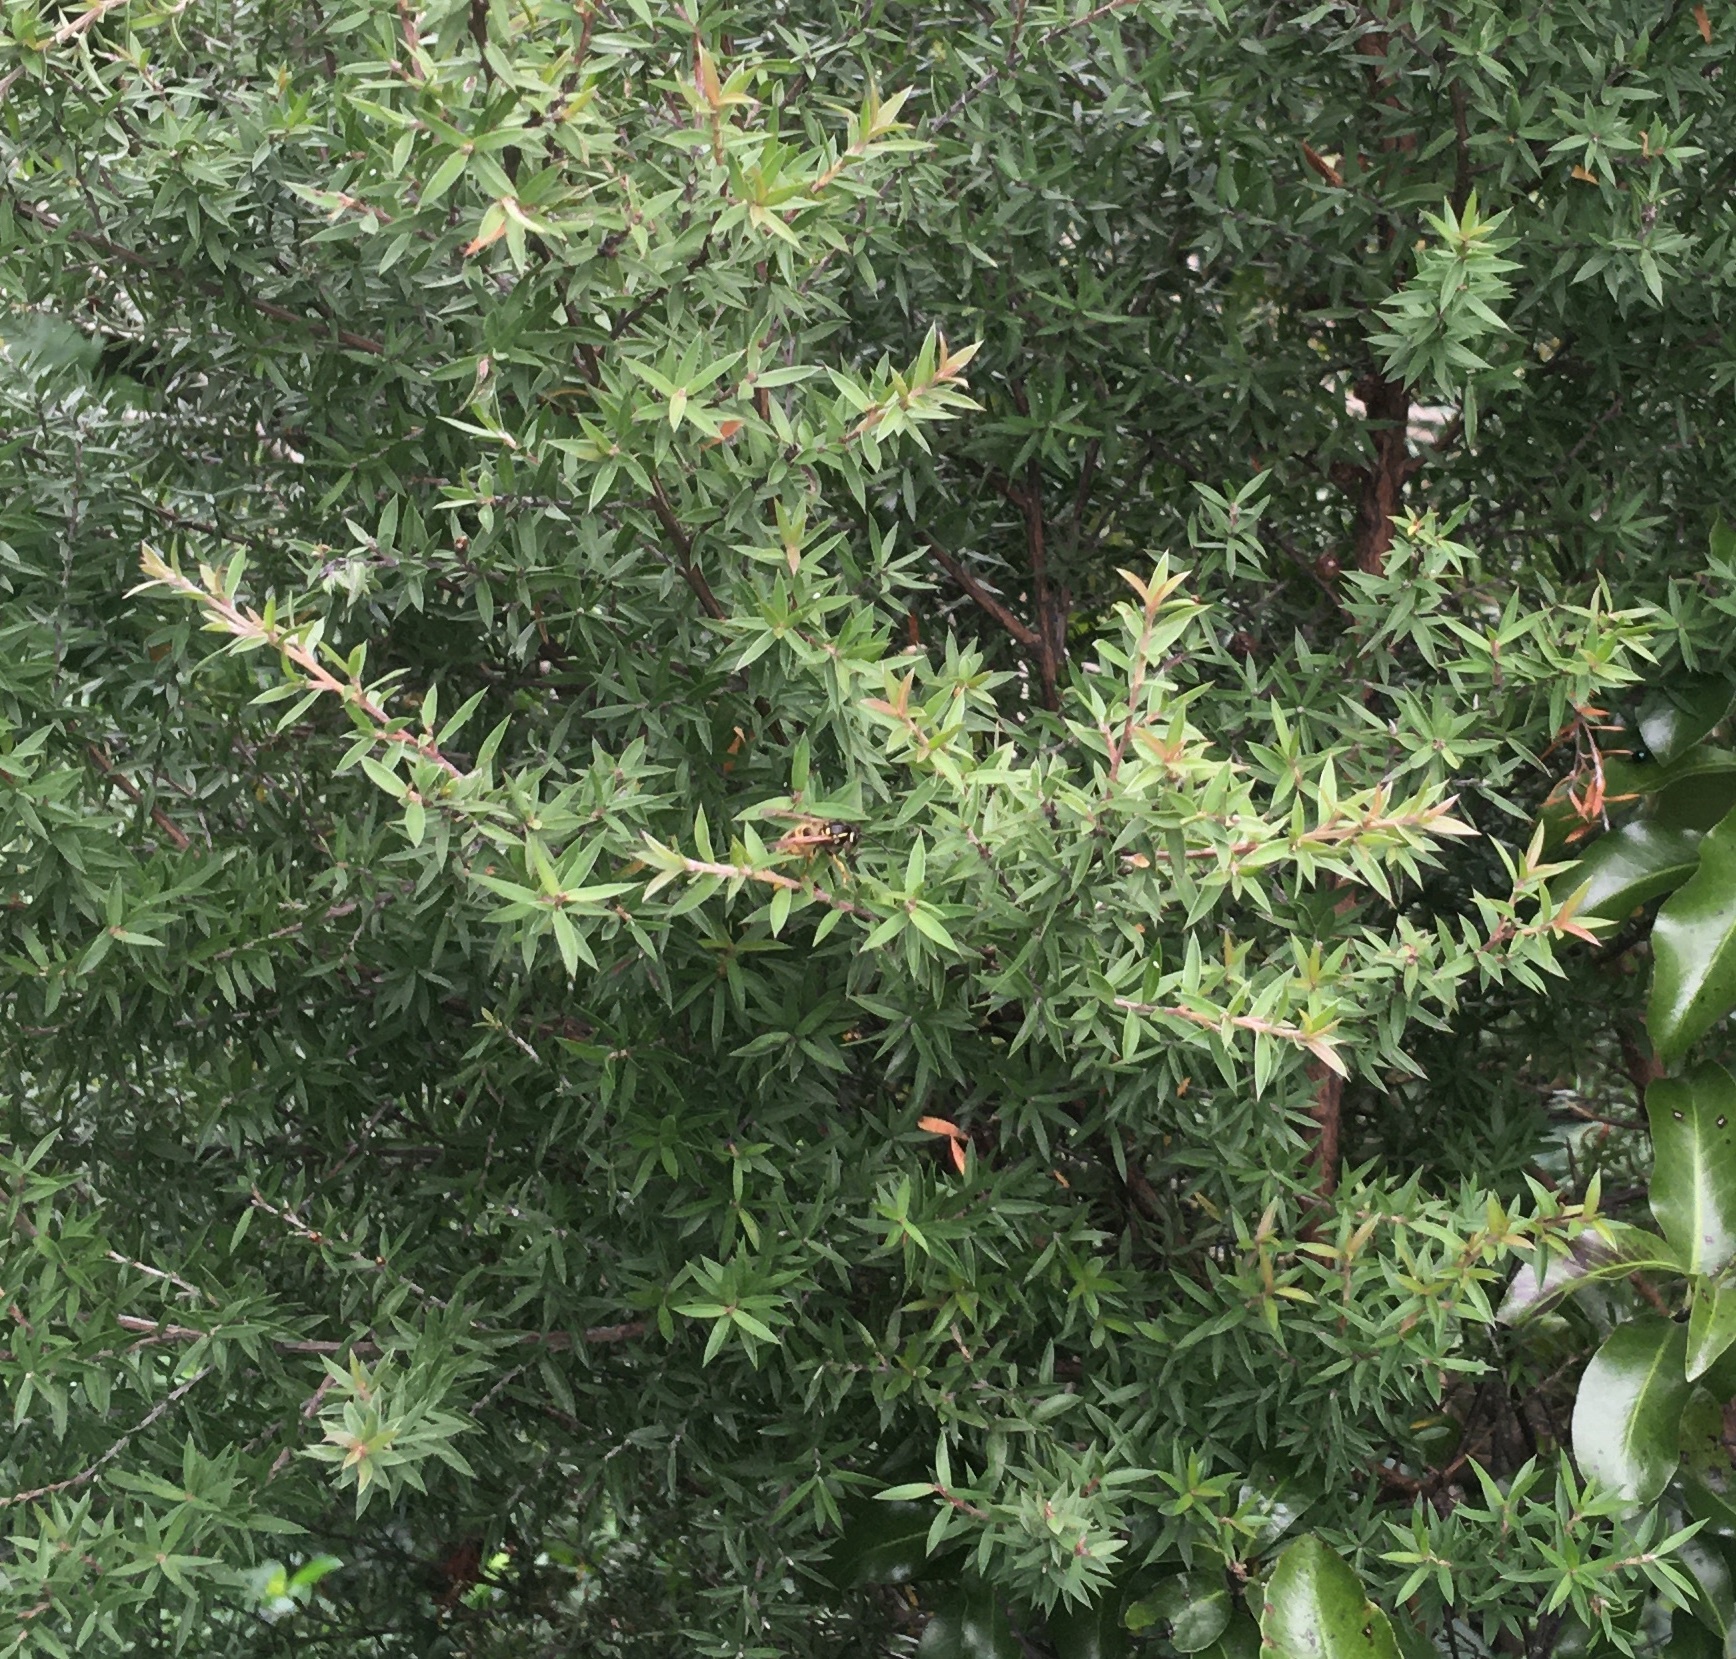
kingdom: Animalia
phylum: Arthropoda
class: Insecta
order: Hymenoptera
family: Vespidae
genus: Vespula
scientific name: Vespula
